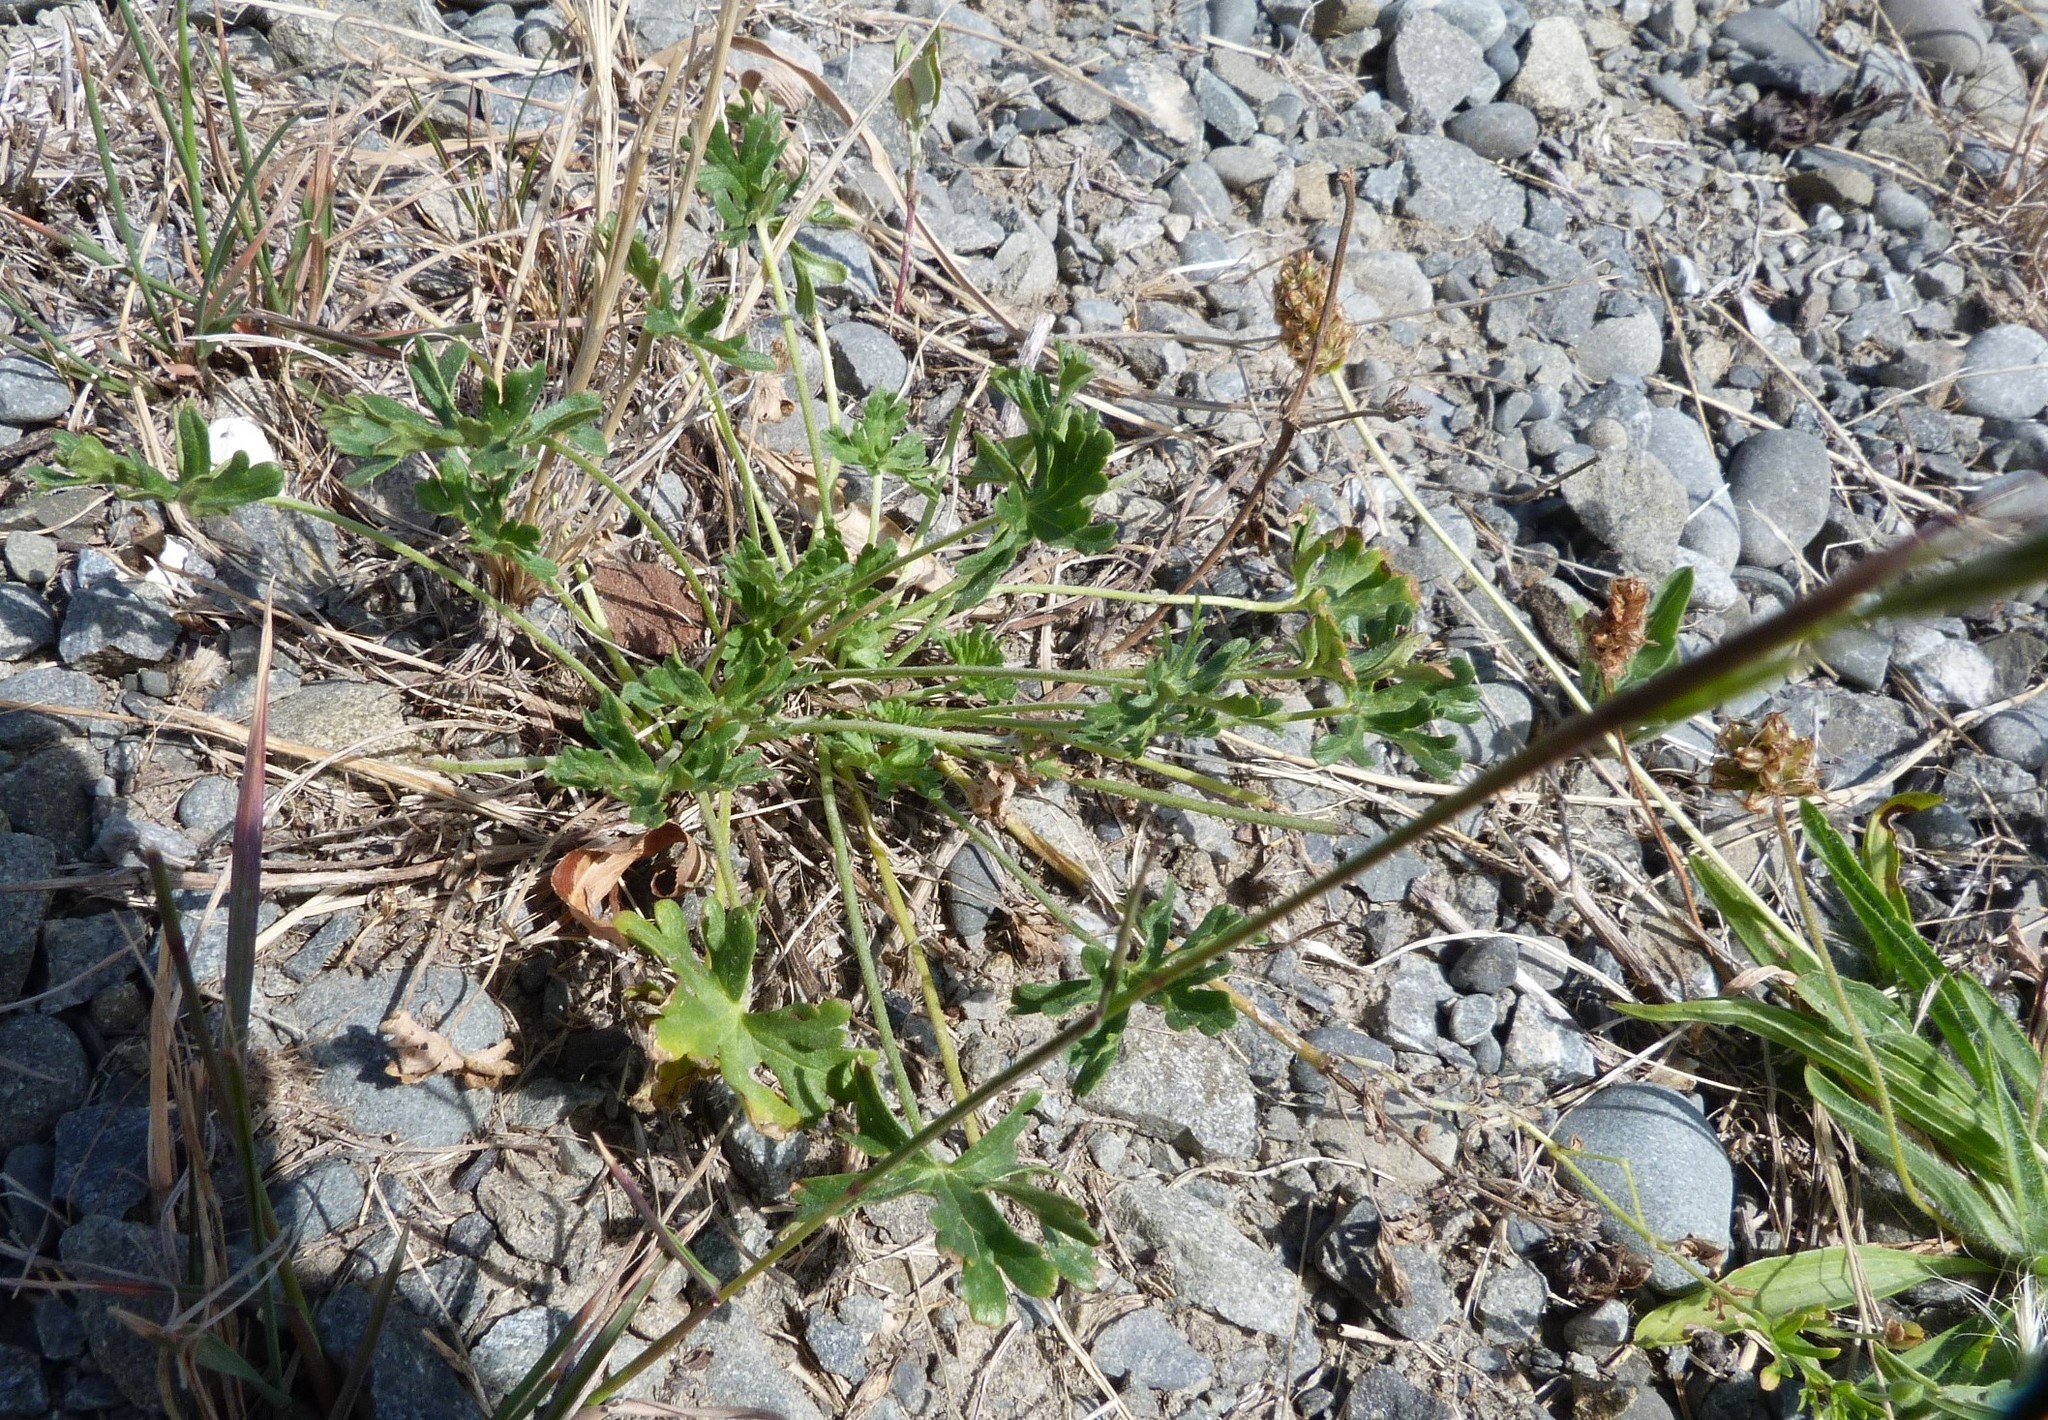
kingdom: Plantae
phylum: Tracheophyta
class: Magnoliopsida
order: Geraniales
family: Geraniaceae
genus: Geranium
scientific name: Geranium retrorsum
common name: New zealand geranium
